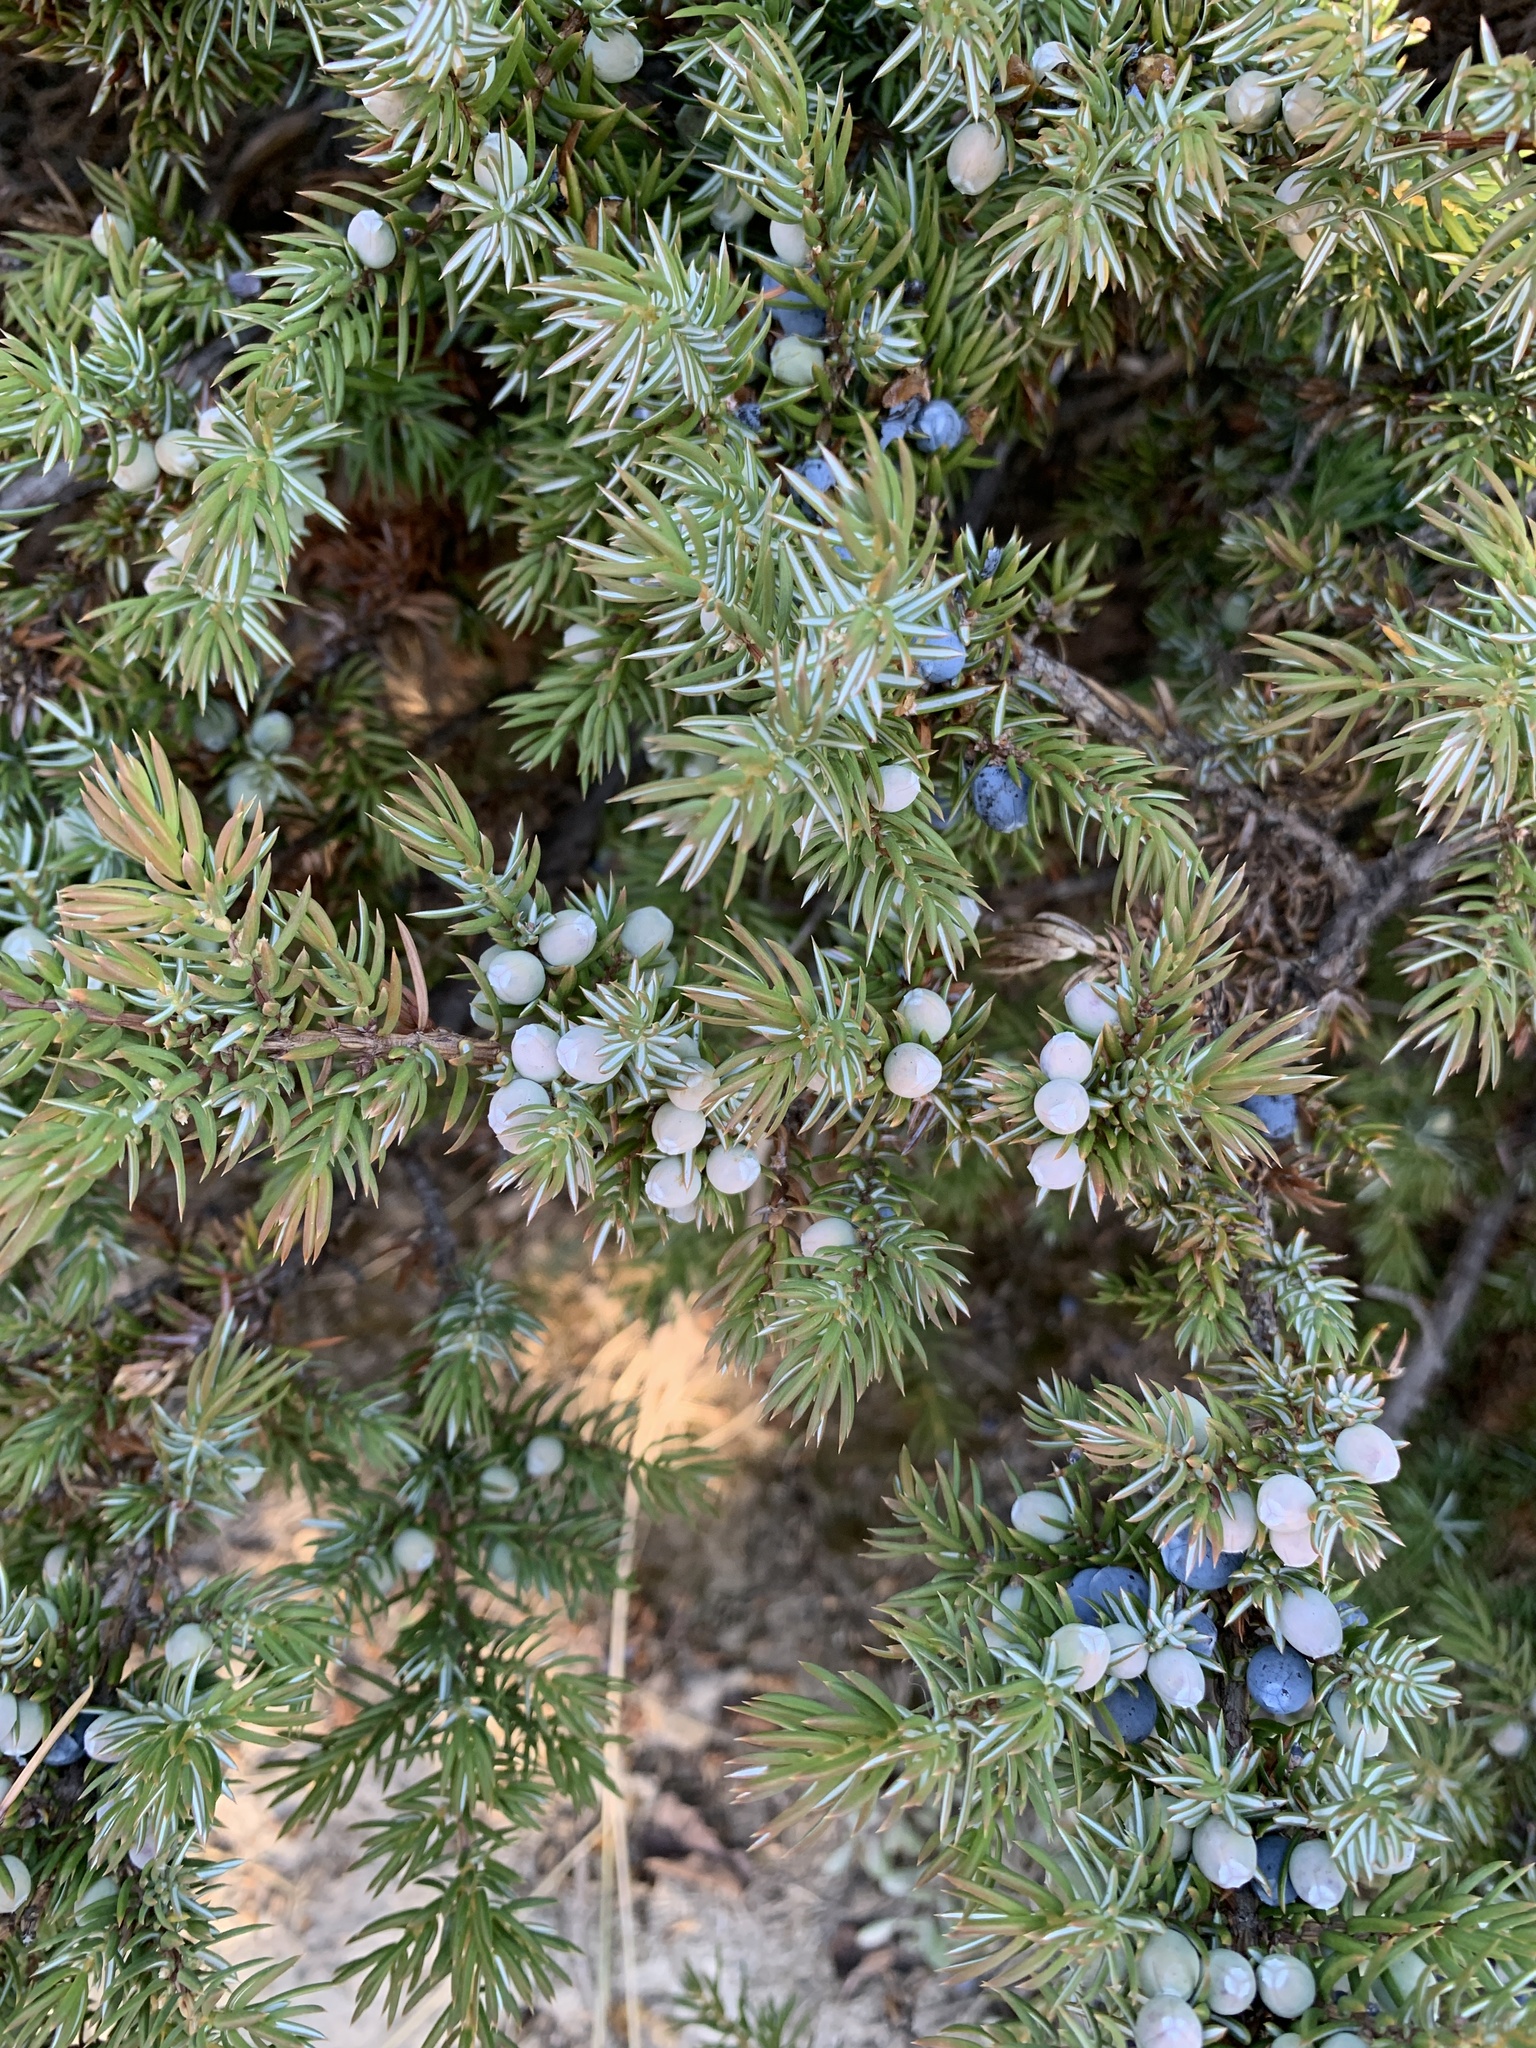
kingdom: Plantae
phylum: Tracheophyta
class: Pinopsida
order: Pinales
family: Cupressaceae
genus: Juniperus
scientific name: Juniperus communis
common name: Common juniper
